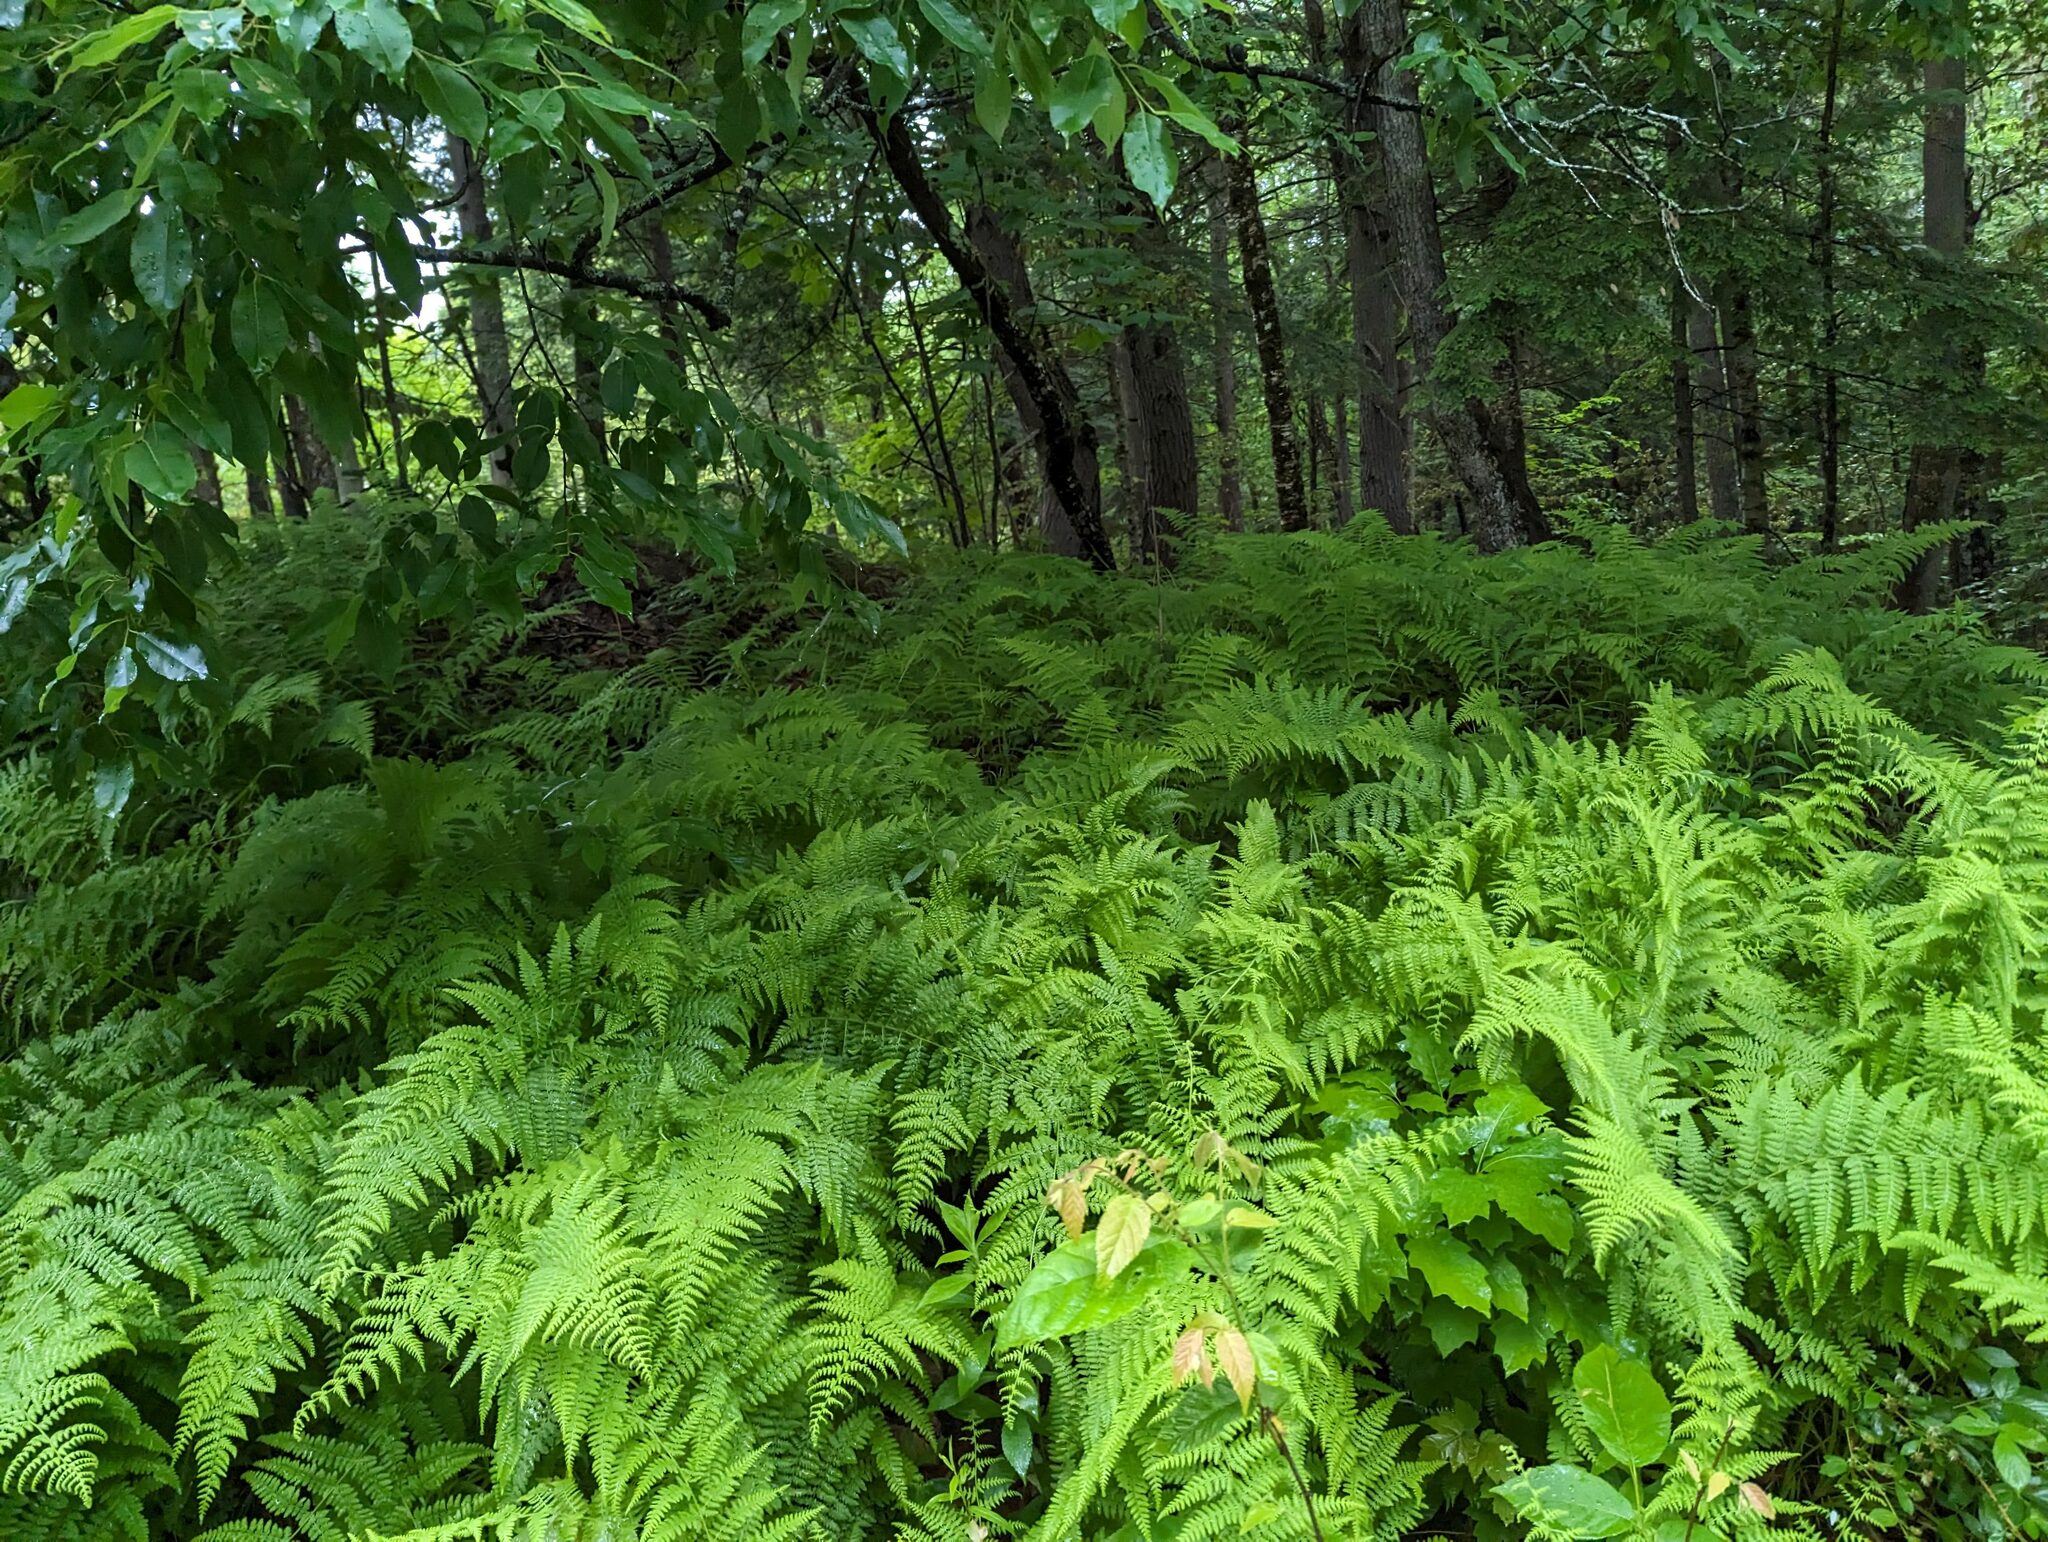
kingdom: Plantae
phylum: Tracheophyta
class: Polypodiopsida
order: Polypodiales
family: Dennstaedtiaceae
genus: Sitobolium
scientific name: Sitobolium punctilobum
